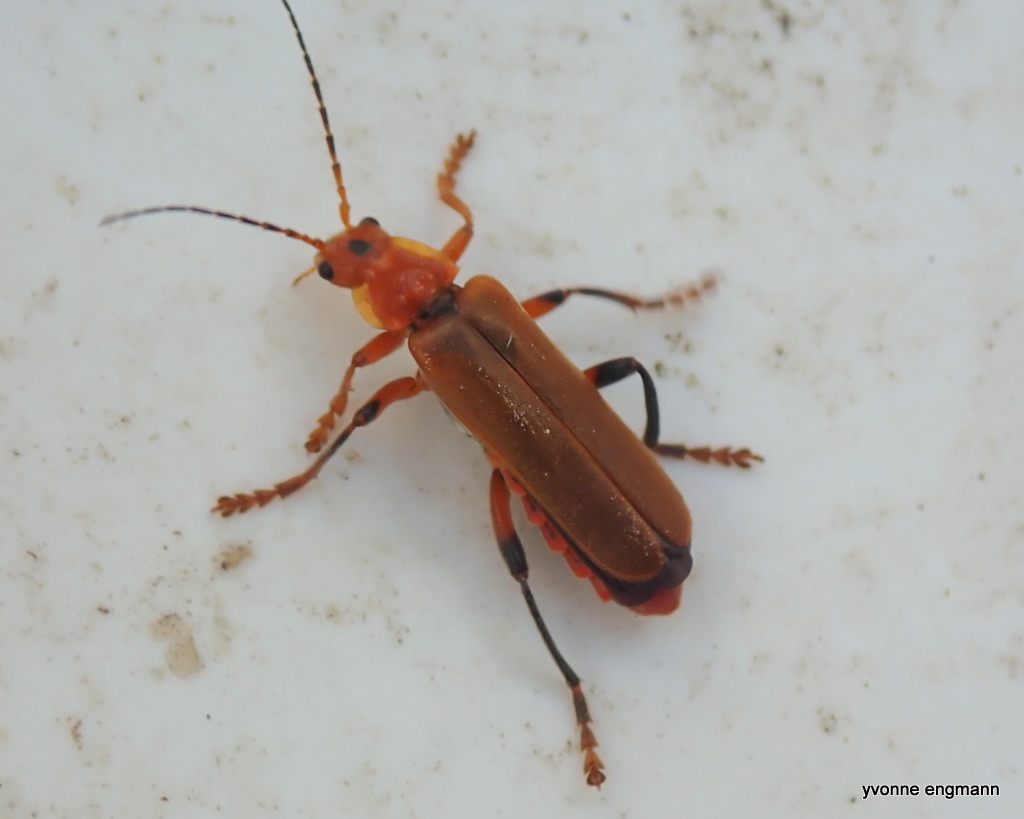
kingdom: Animalia
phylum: Arthropoda
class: Insecta
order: Coleoptera
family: Cantharidae
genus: Cantharis
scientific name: Cantharis livida
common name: Livid soldier beetle
